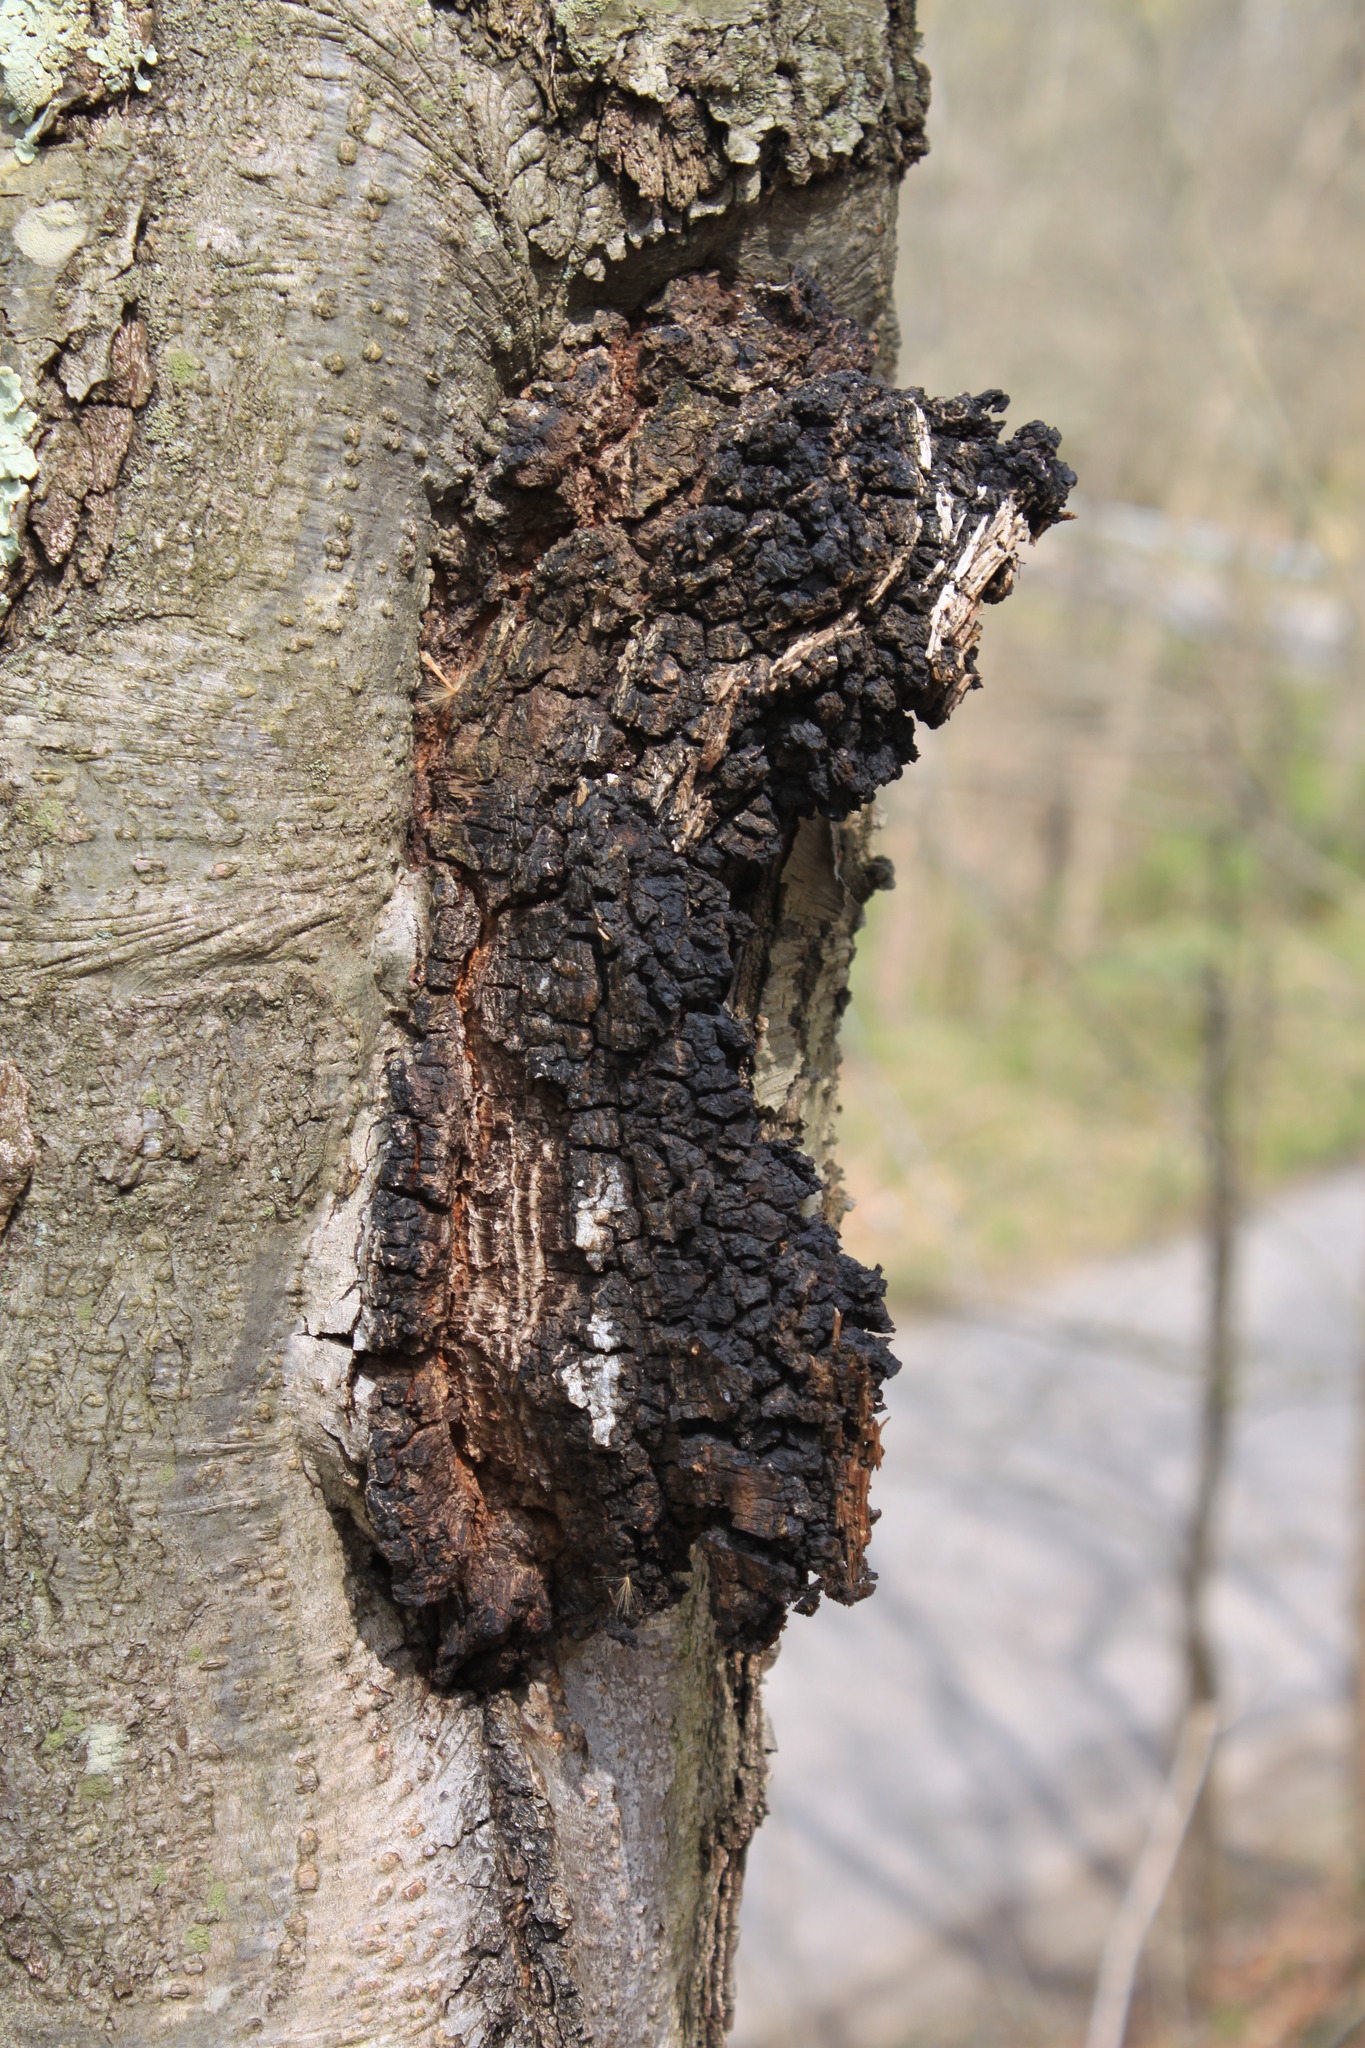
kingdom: Fungi
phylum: Basidiomycota
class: Agaricomycetes
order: Hymenochaetales
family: Hymenochaetaceae
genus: Inonotus
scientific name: Inonotus obliquus
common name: Chaga
